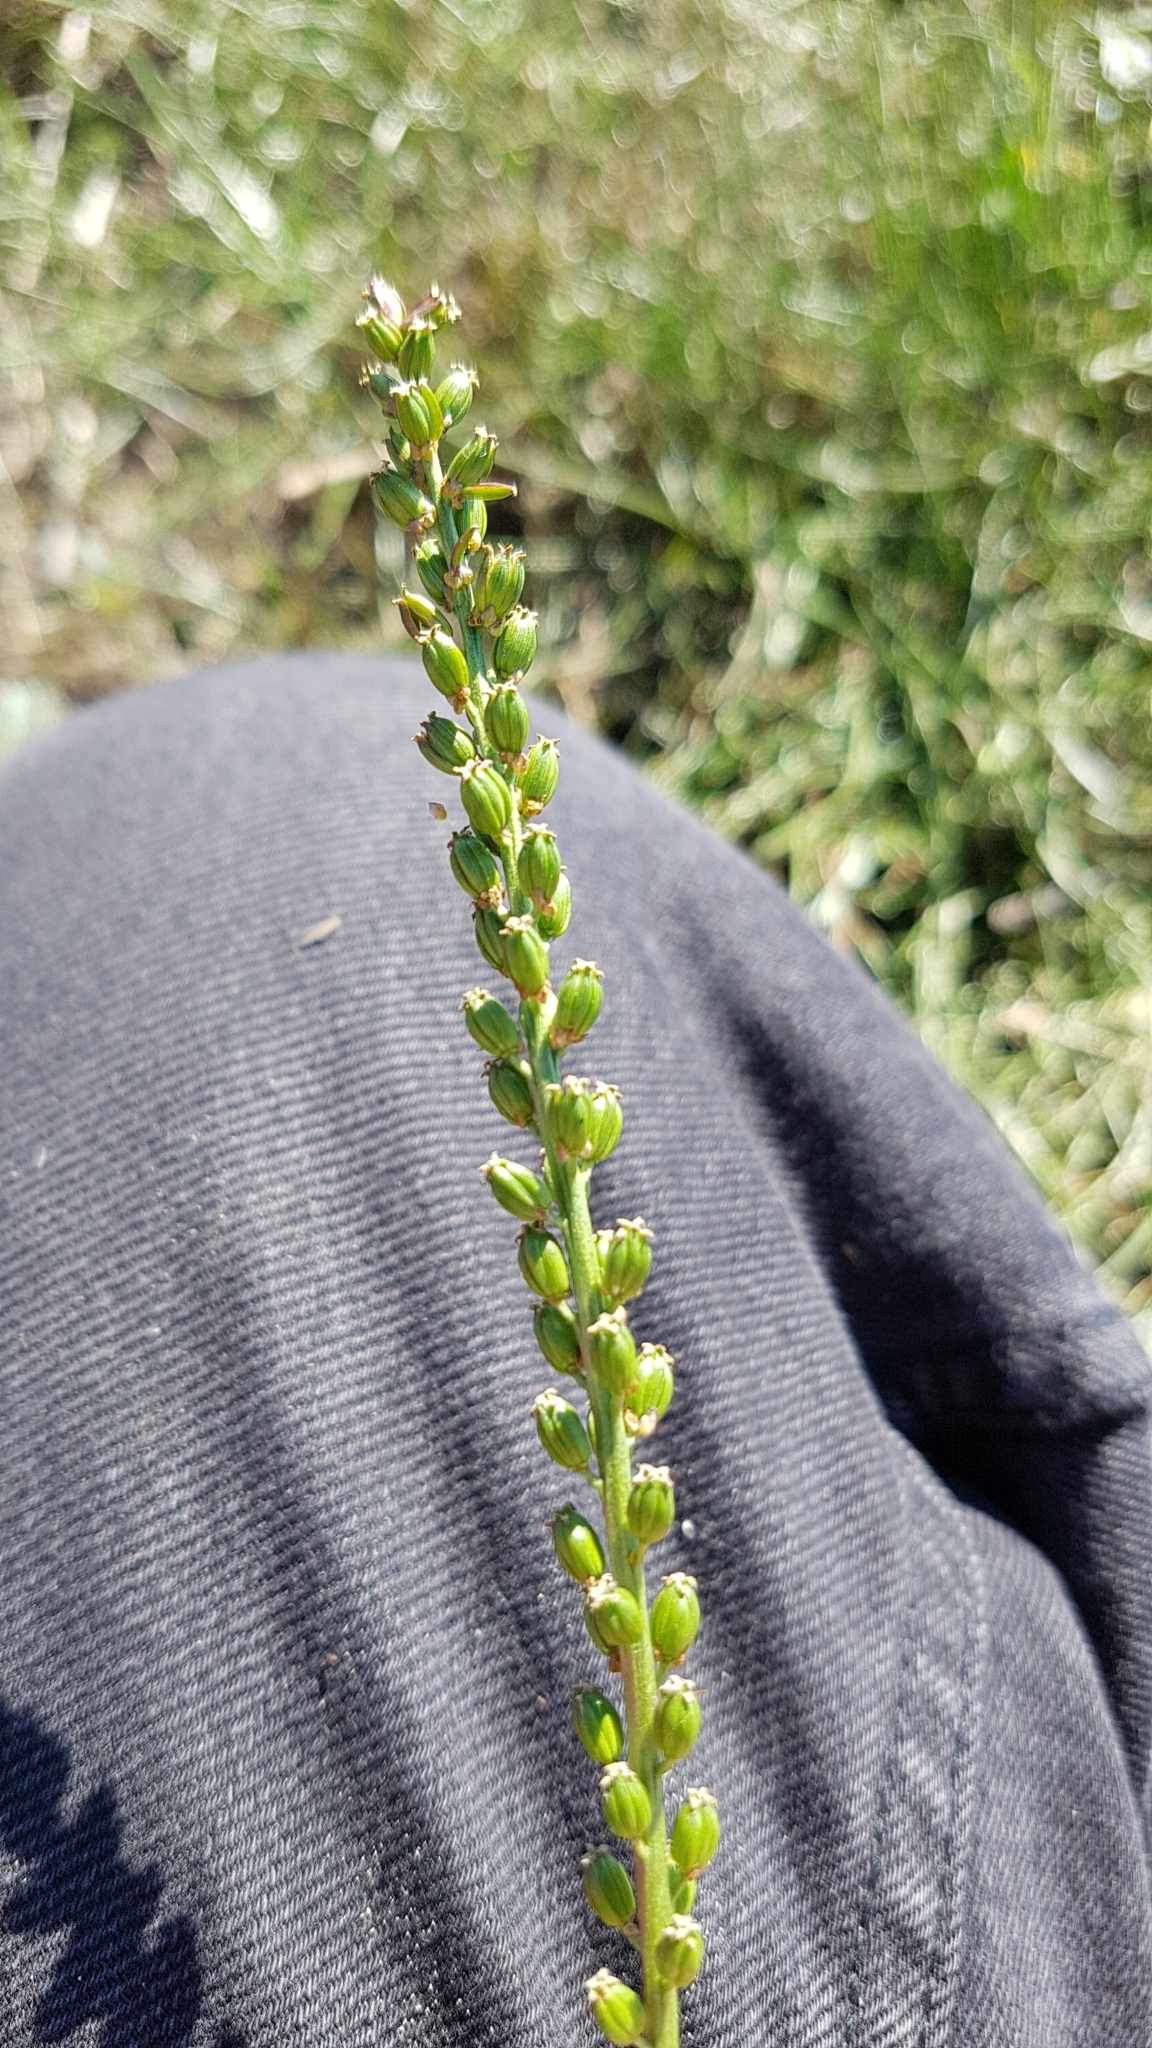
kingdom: Plantae
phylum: Tracheophyta
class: Liliopsida
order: Alismatales
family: Juncaginaceae
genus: Triglochin
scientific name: Triglochin maritima
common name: Sea arrowgrass
